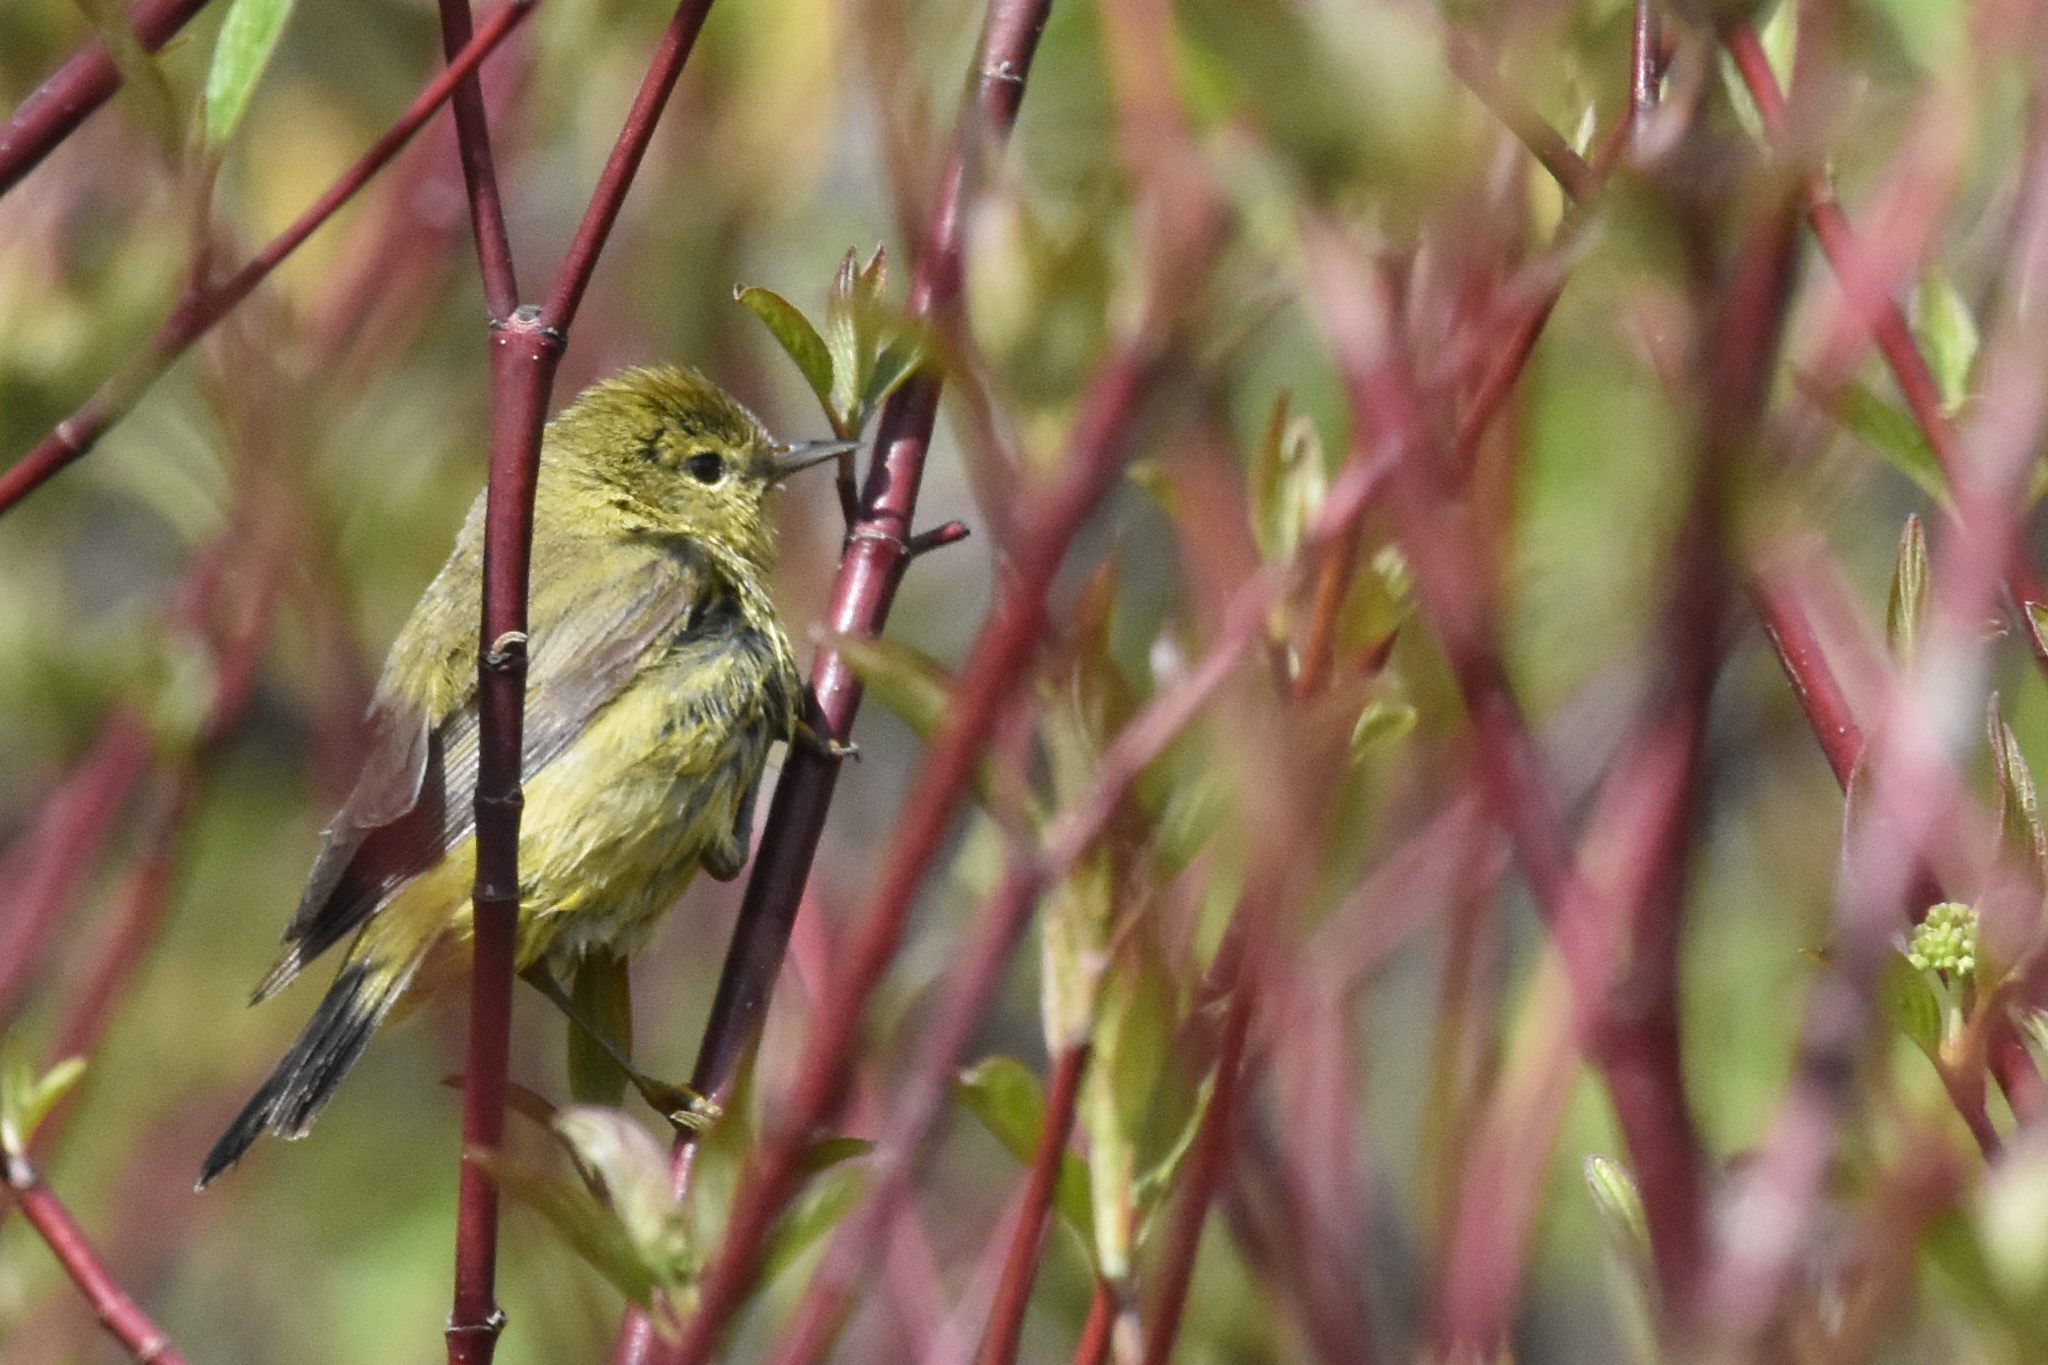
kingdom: Animalia
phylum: Chordata
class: Aves
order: Passeriformes
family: Parulidae
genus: Leiothlypis
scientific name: Leiothlypis celata
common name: Orange-crowned warbler
